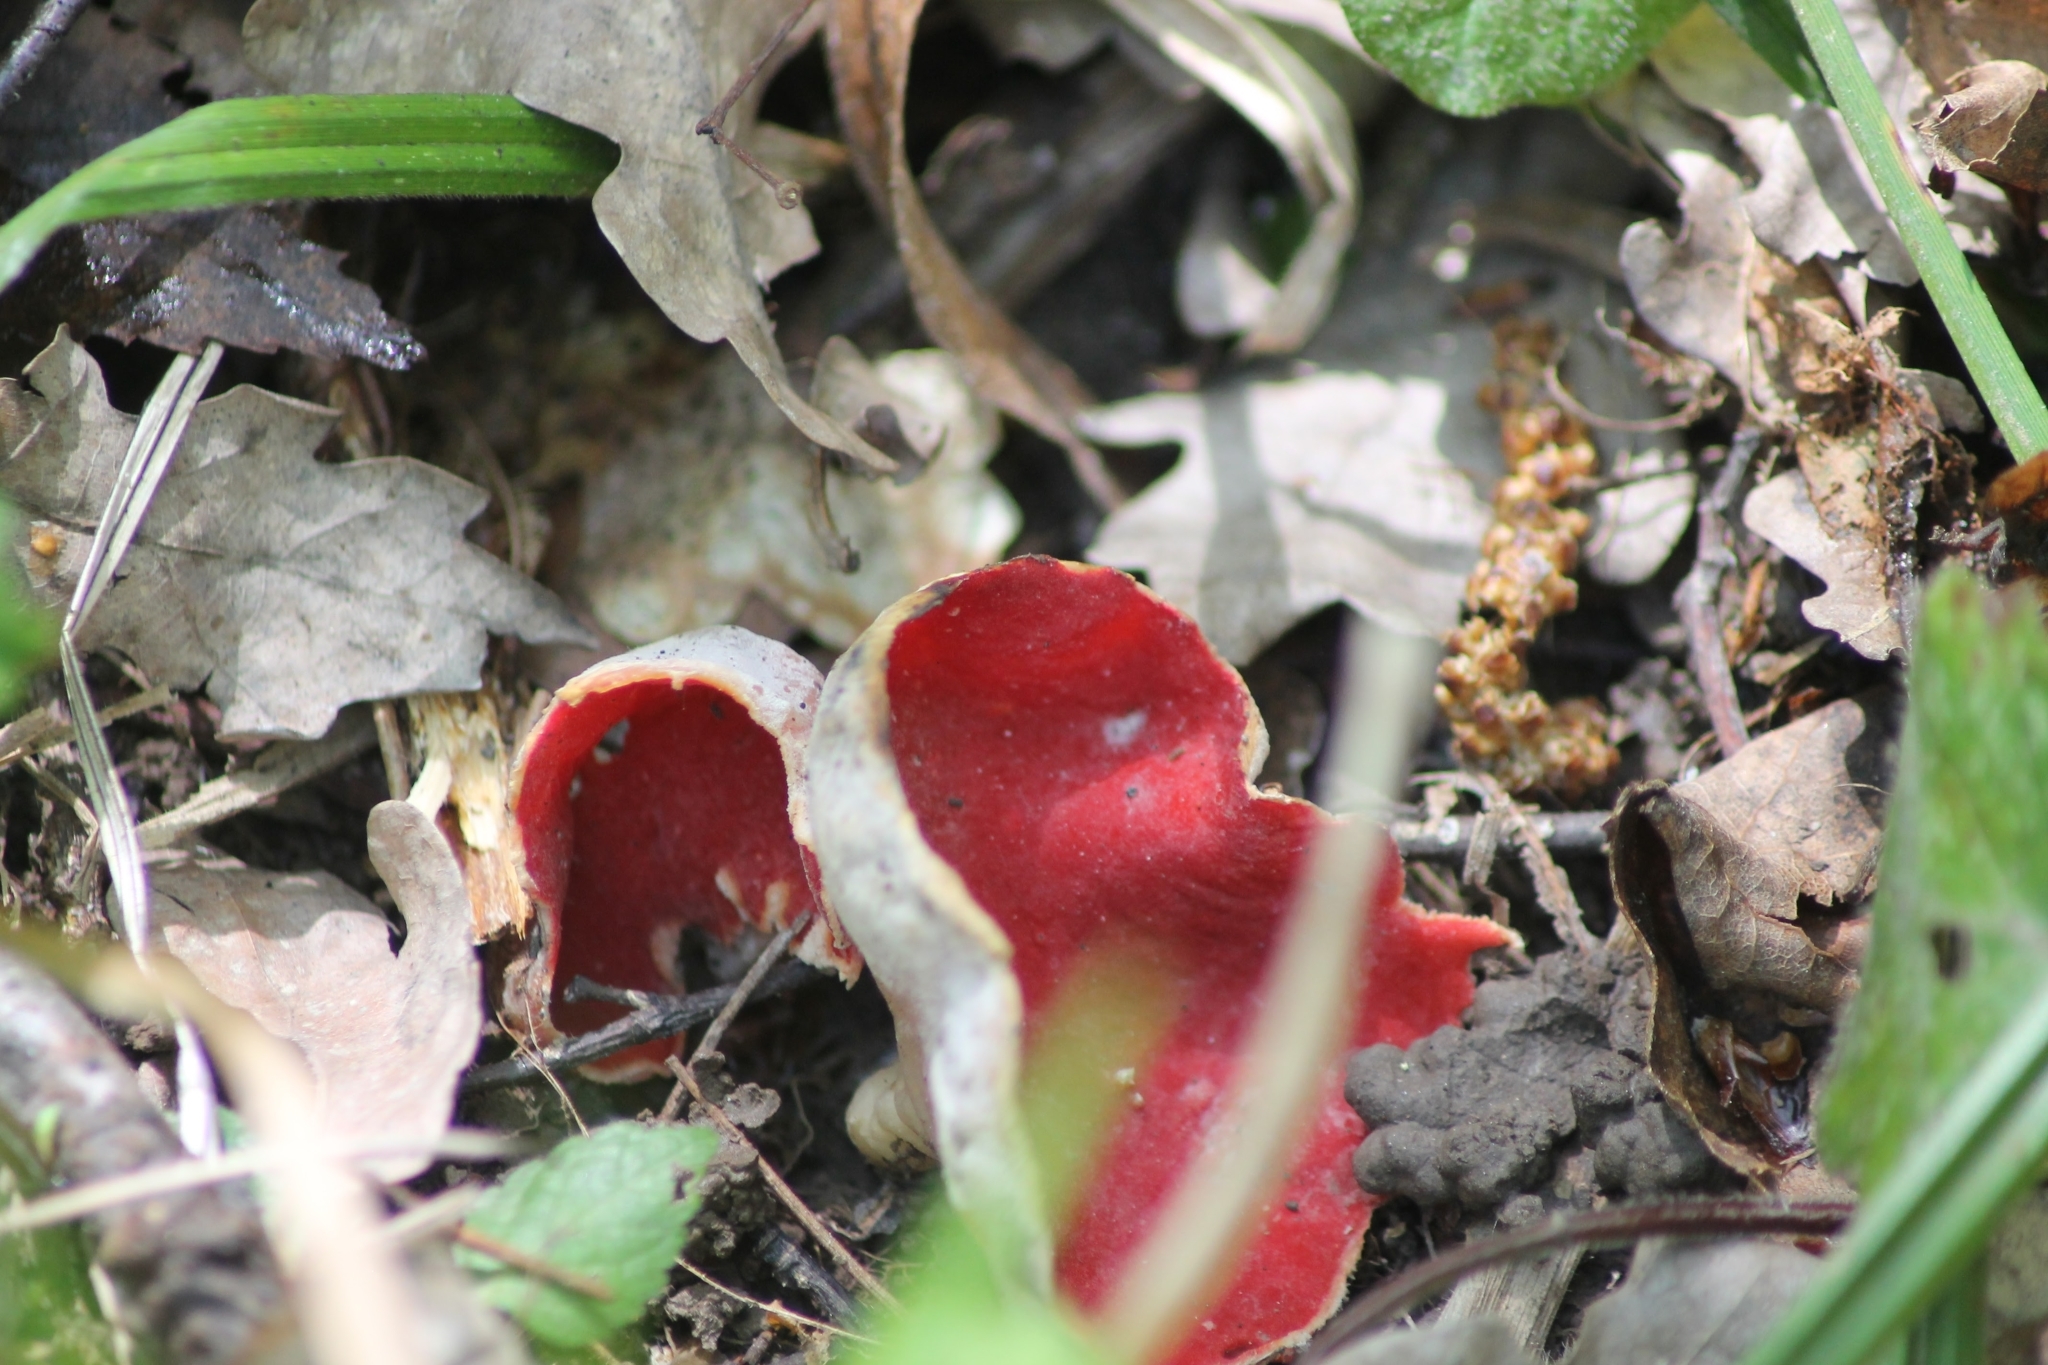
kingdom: Fungi
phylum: Ascomycota
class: Pezizomycetes
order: Pezizales
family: Sarcoscyphaceae
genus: Sarcoscypha
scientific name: Sarcoscypha austriaca
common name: Scarlet elfcup
